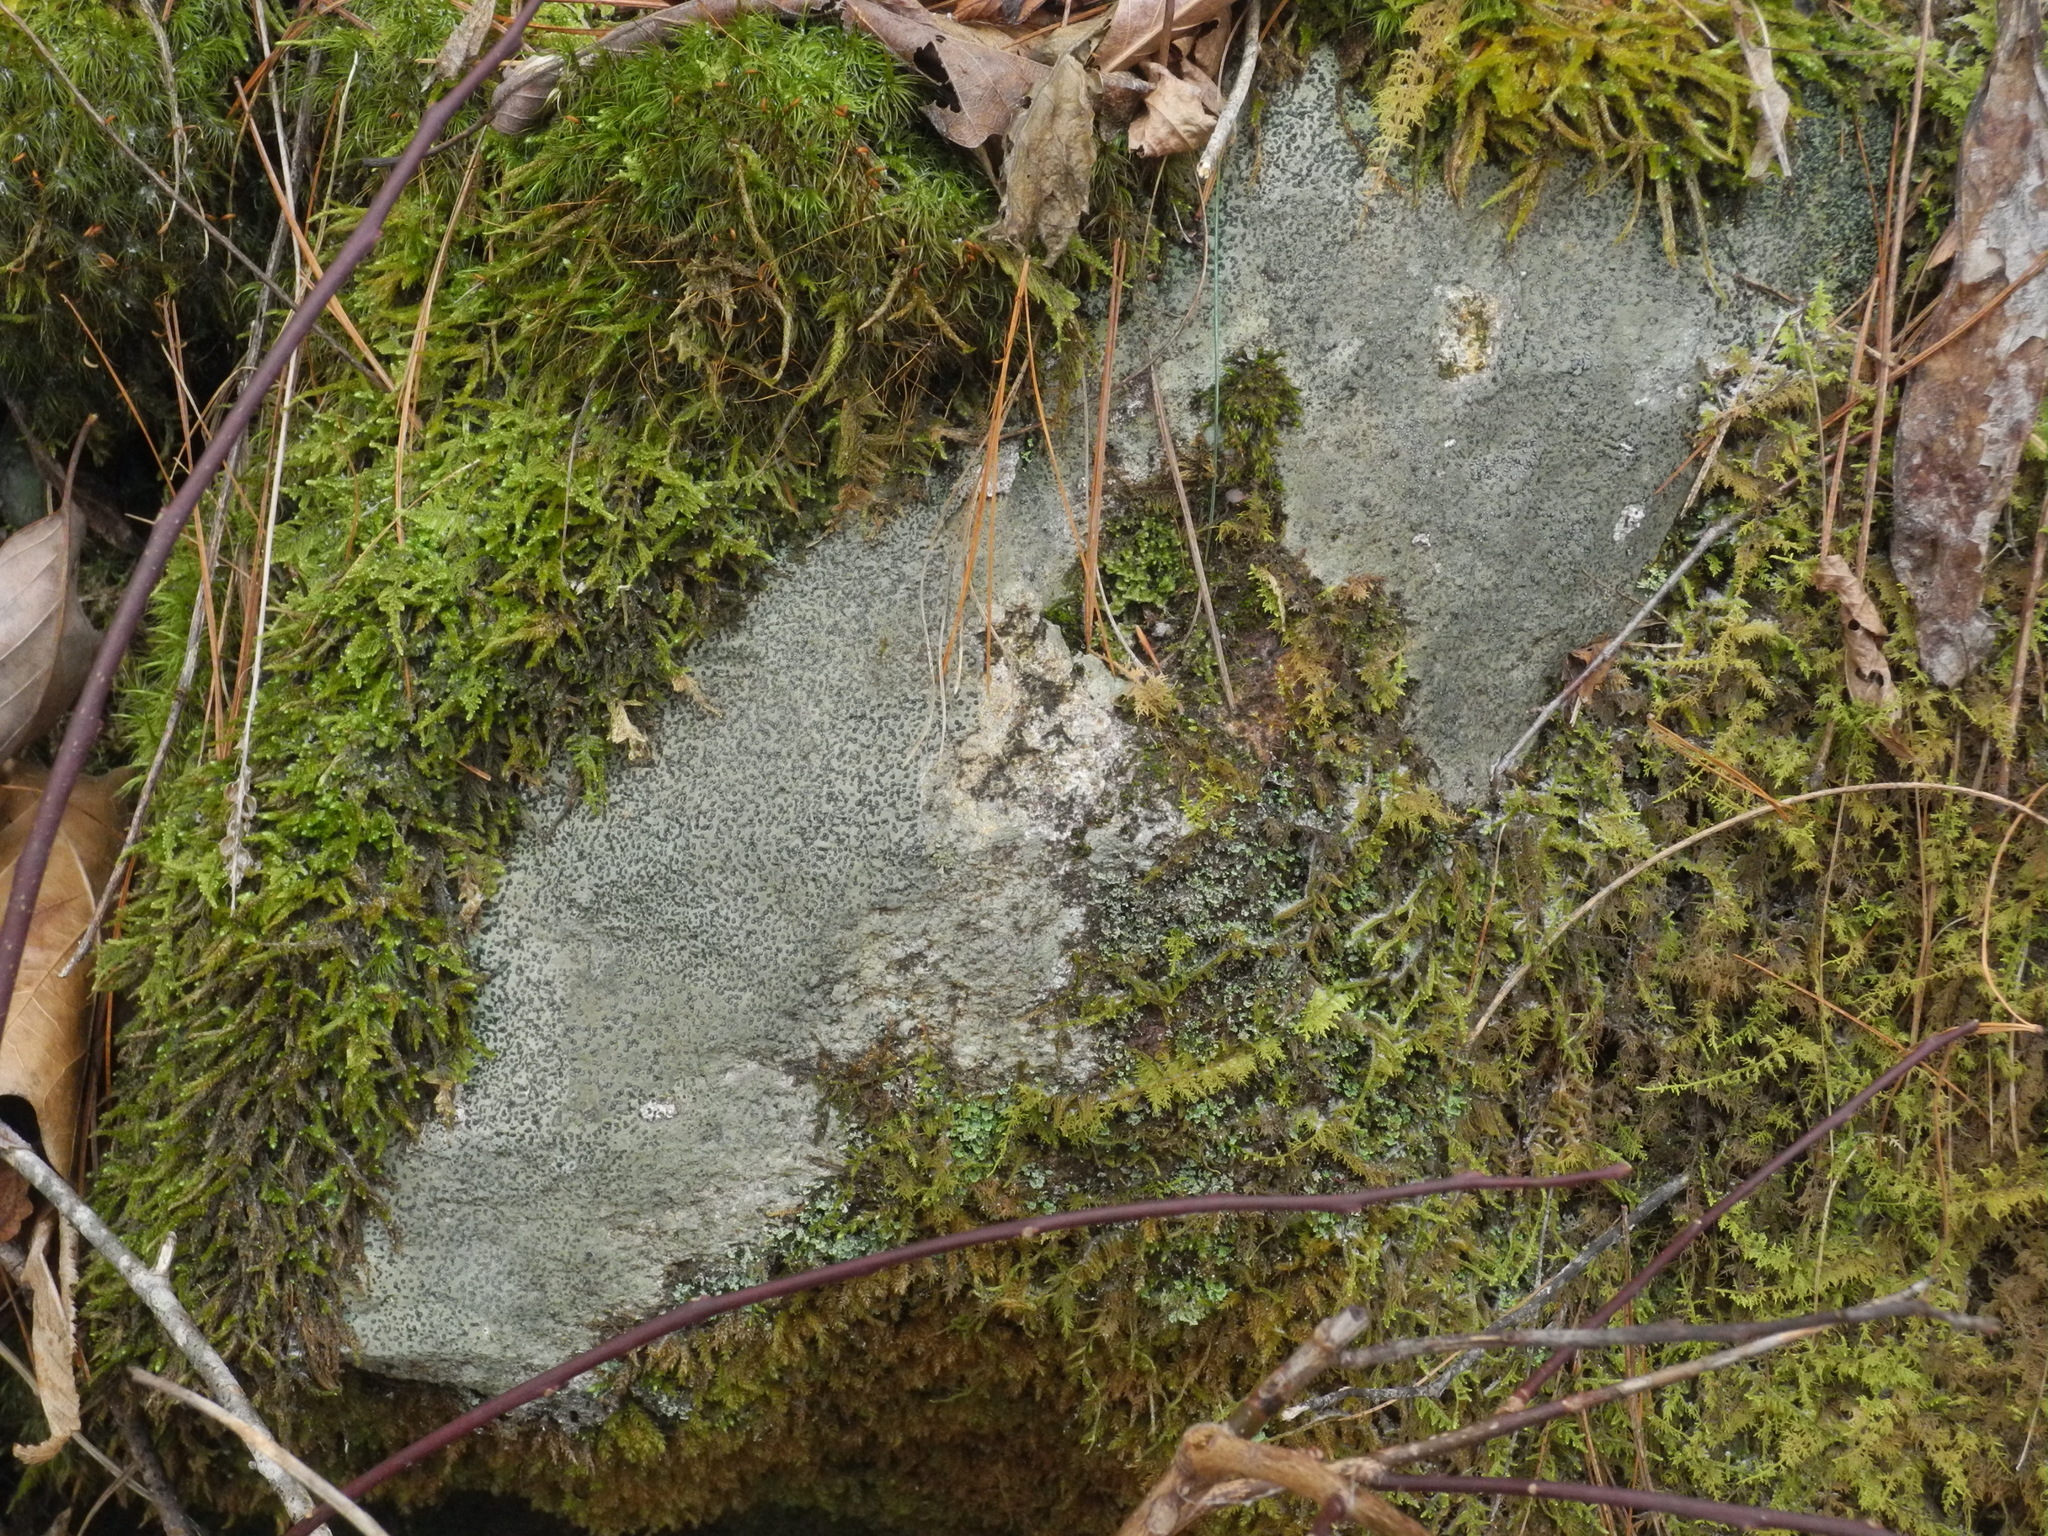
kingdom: Fungi
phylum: Ascomycota
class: Lecanoromycetes
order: Lecideales
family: Lecideaceae
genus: Porpidia
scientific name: Porpidia albocaerulescens
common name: Smokey-eyed boulder lichen
